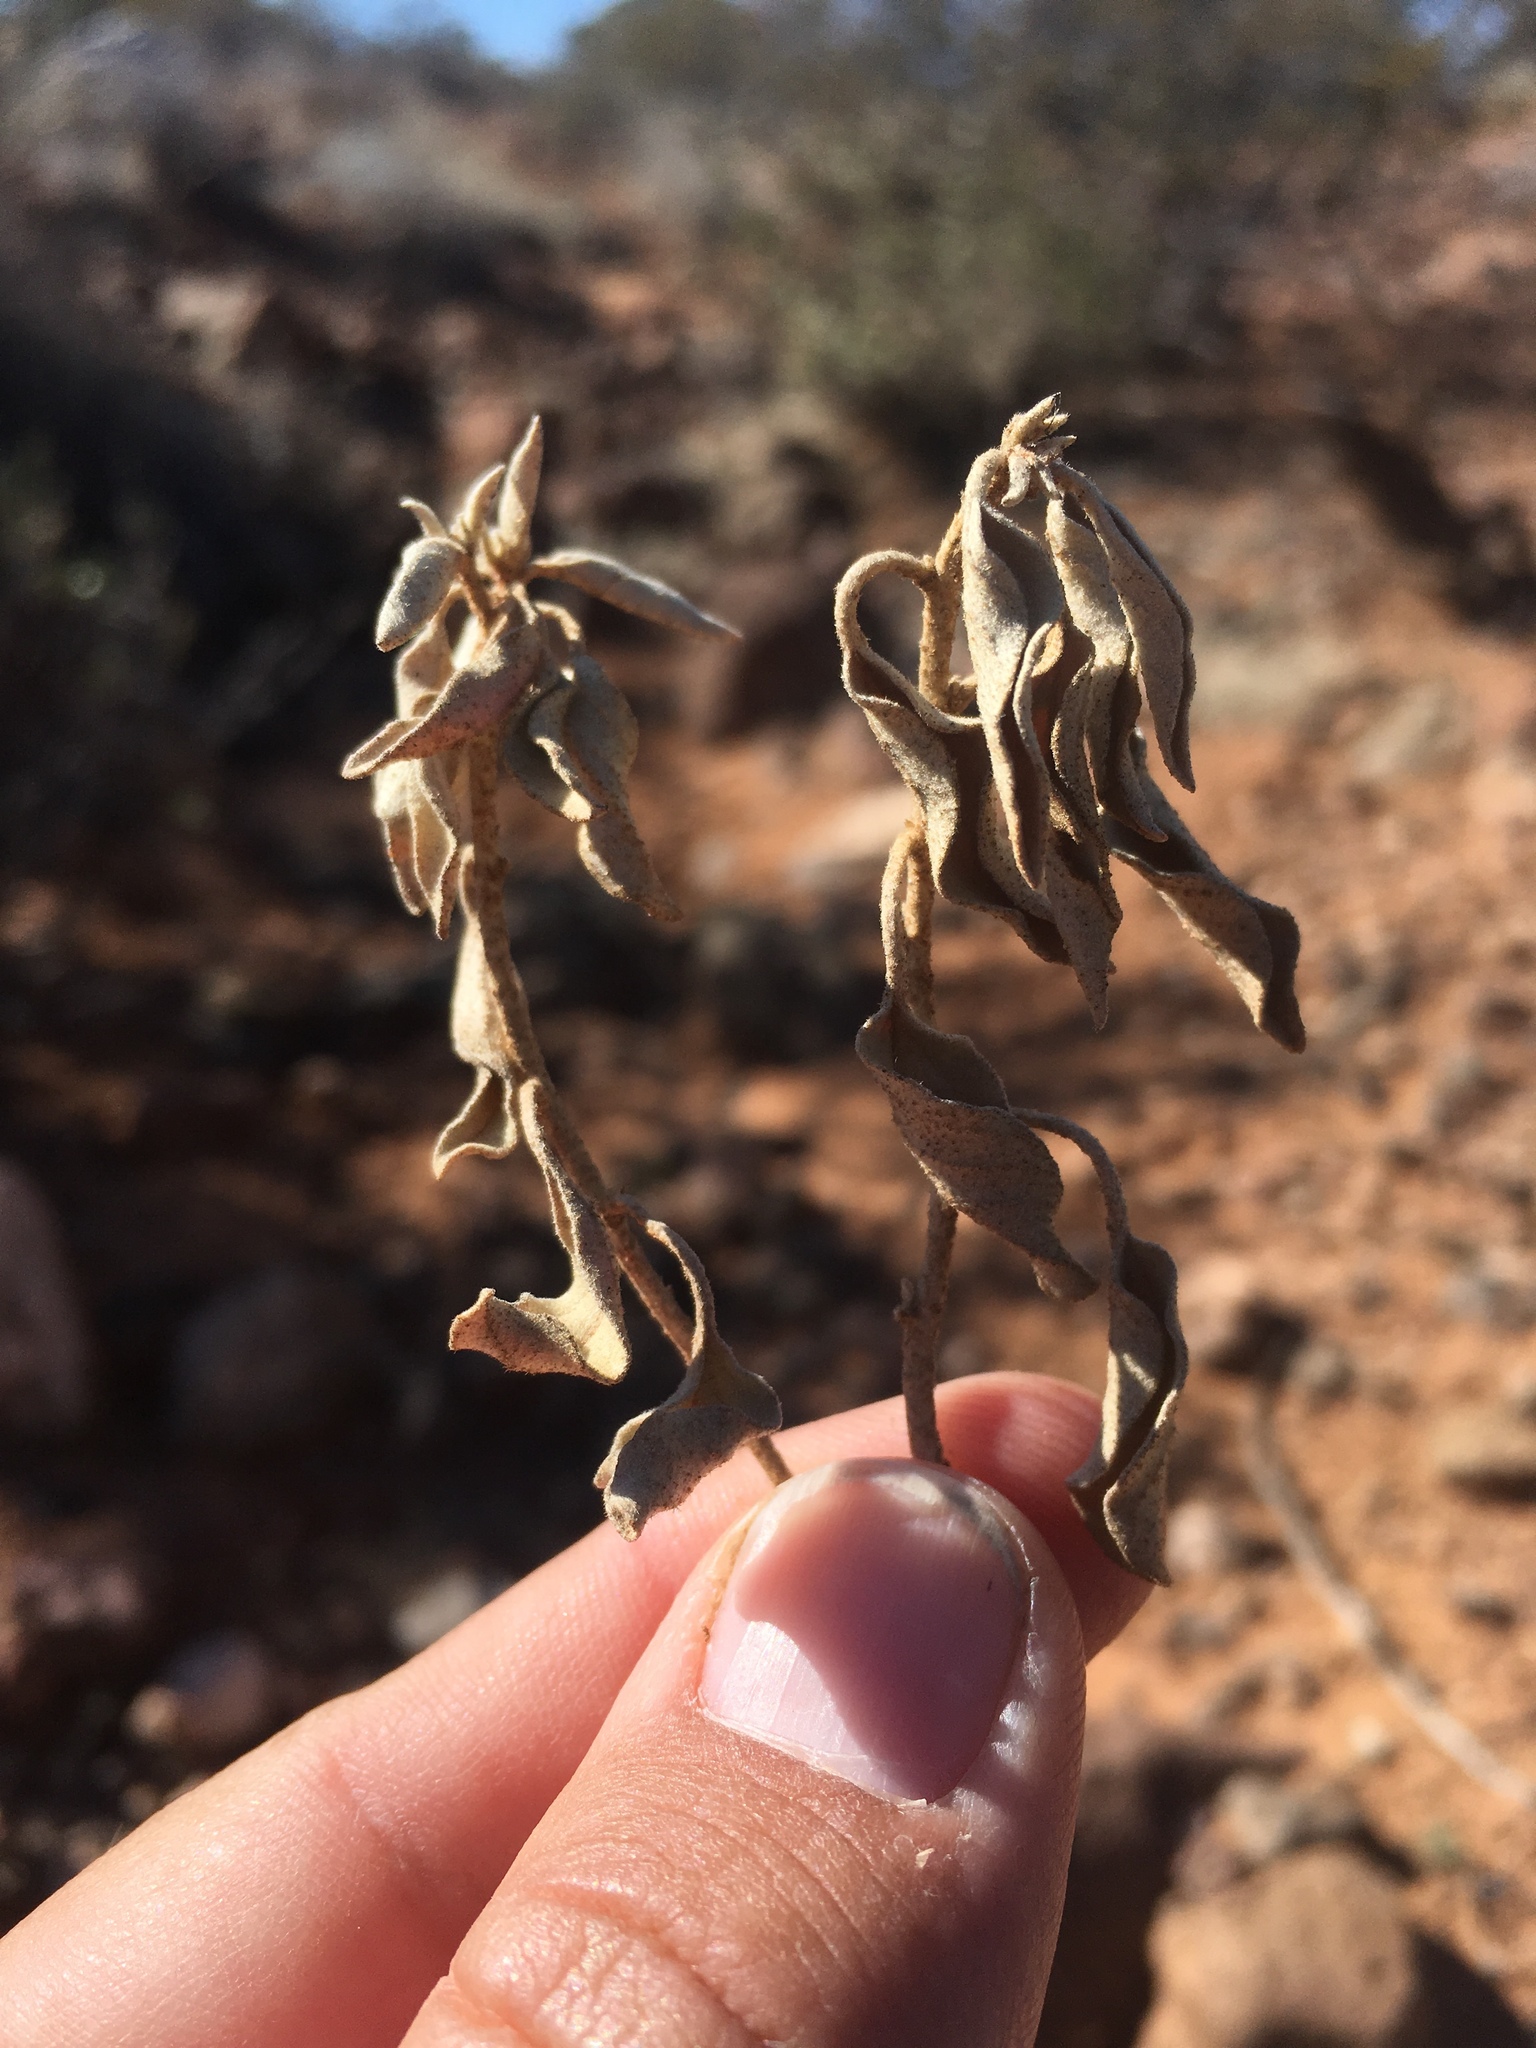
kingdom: Plantae
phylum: Tracheophyta
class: Magnoliopsida
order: Malpighiales
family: Euphorbiaceae
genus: Croton
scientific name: Croton pottsii
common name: Leatherweed
